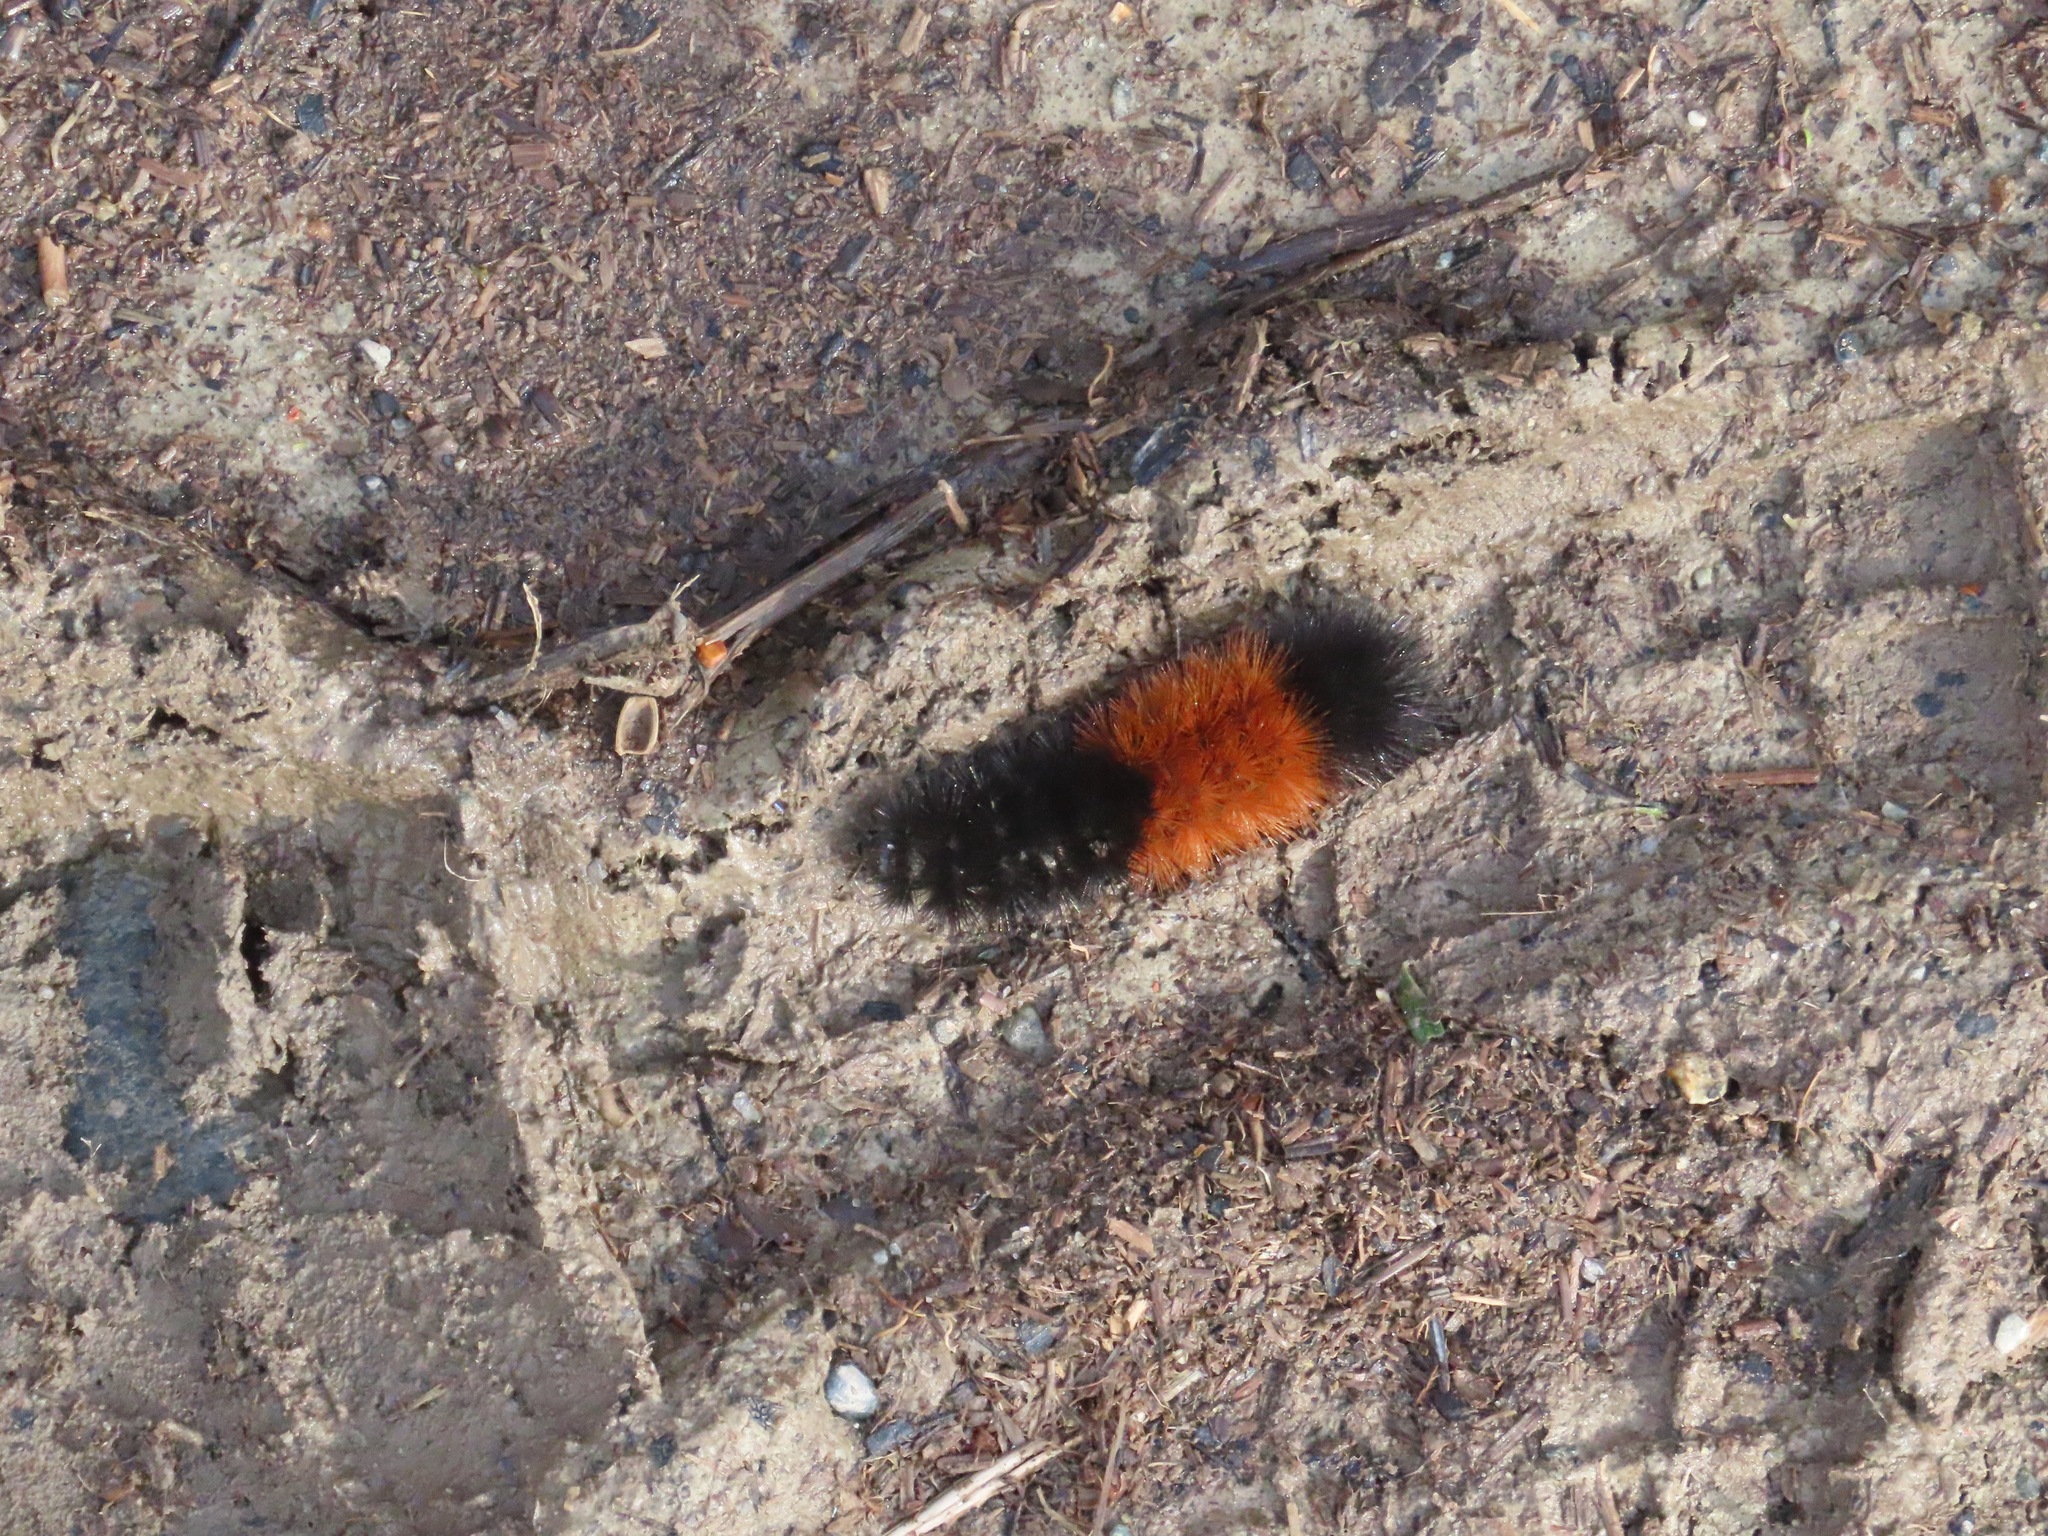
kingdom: Animalia
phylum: Arthropoda
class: Insecta
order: Lepidoptera
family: Erebidae
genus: Pyrrharctia
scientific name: Pyrrharctia isabella
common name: Isabella tiger moth
